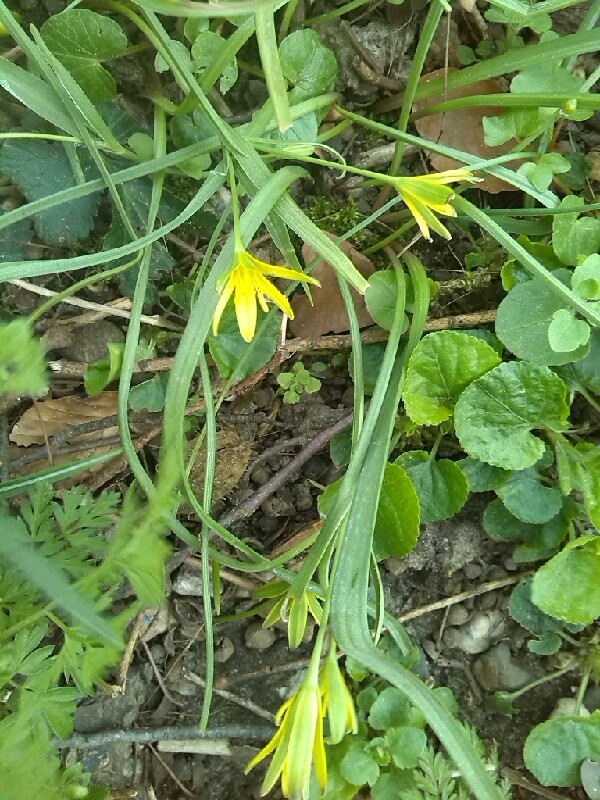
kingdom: Plantae
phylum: Tracheophyta
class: Liliopsida
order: Liliales
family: Liliaceae
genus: Gagea
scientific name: Gagea pratensis
